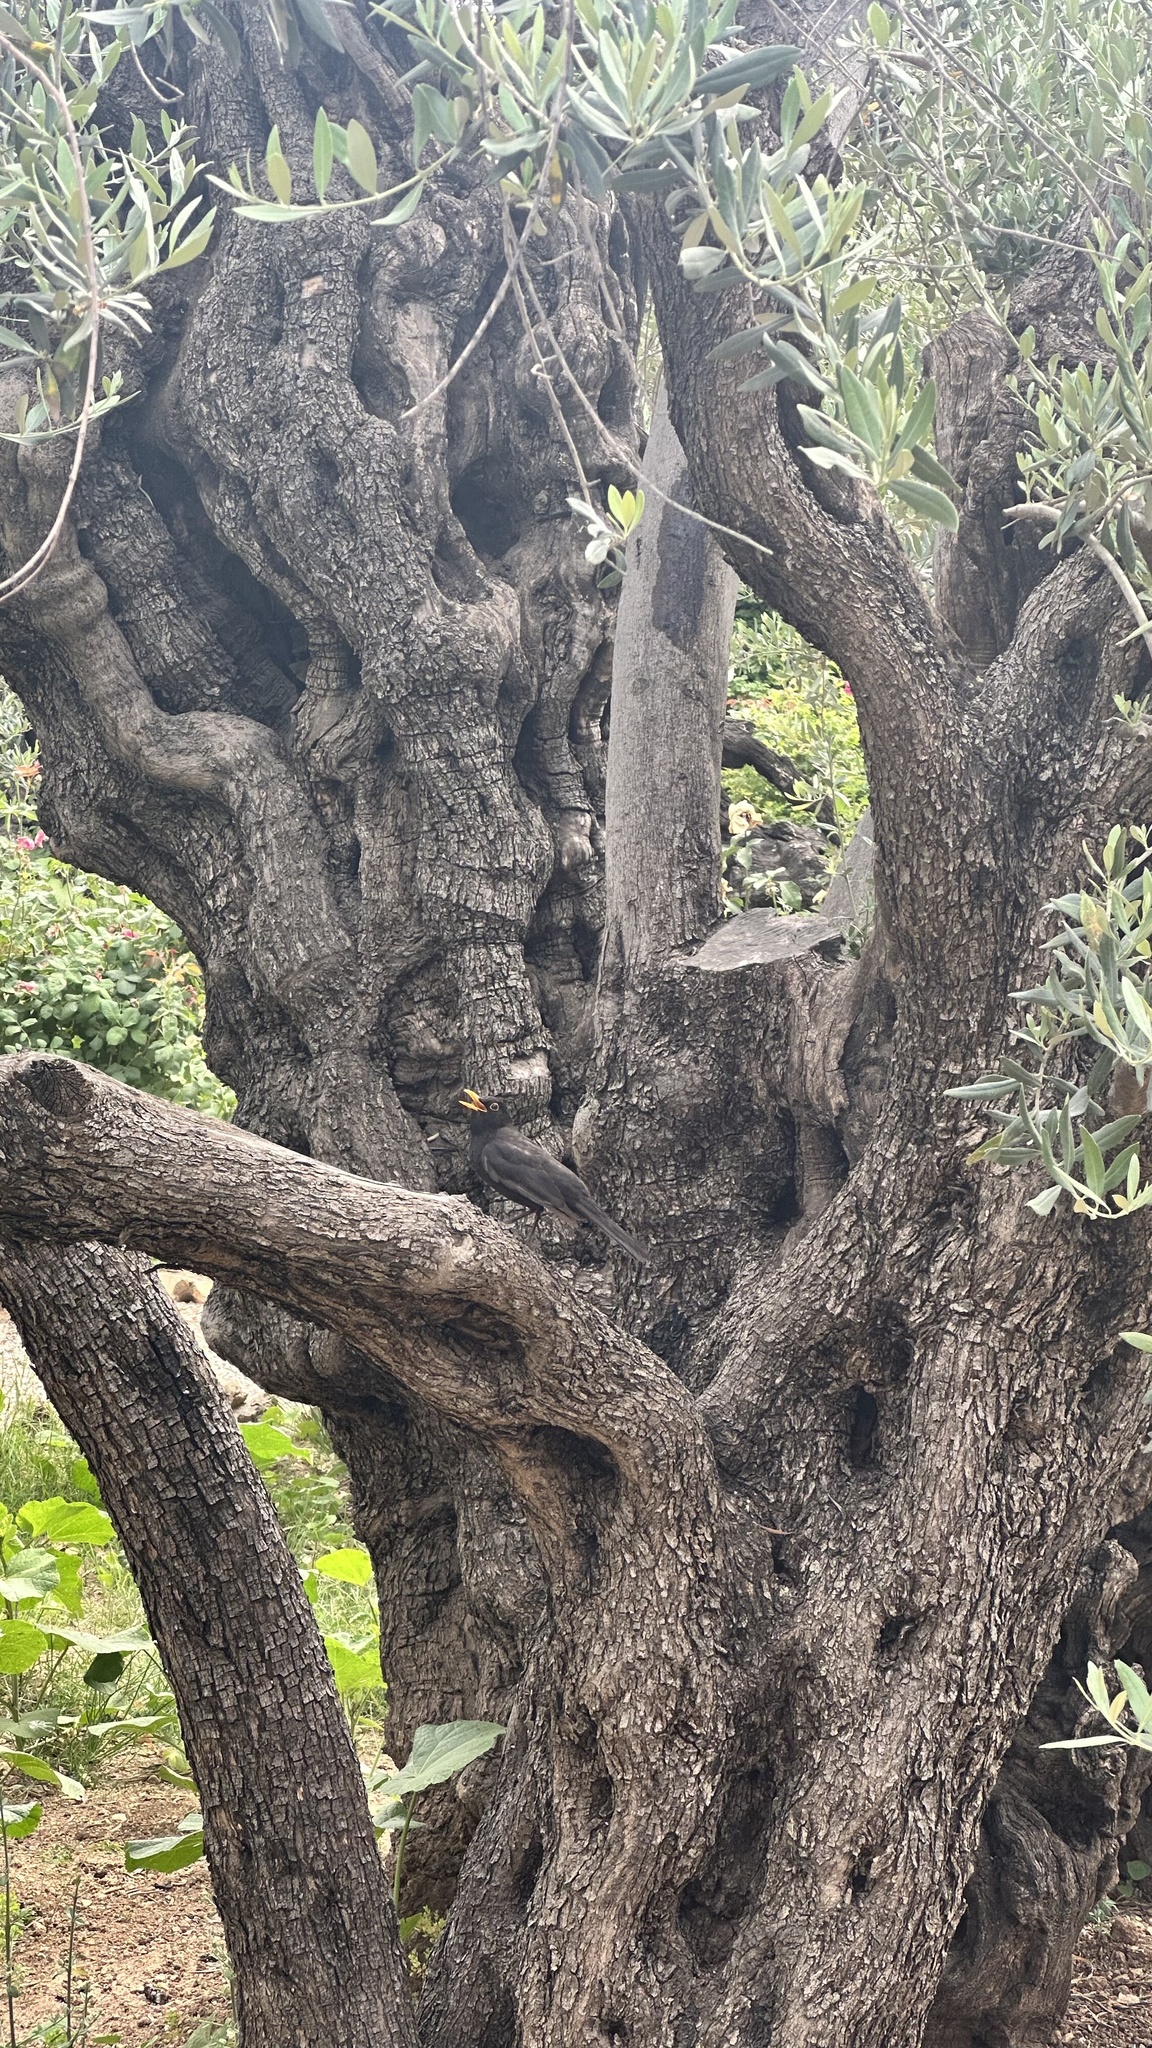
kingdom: Animalia
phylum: Chordata
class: Aves
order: Passeriformes
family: Turdidae
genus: Turdus
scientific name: Turdus merula
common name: Common blackbird
